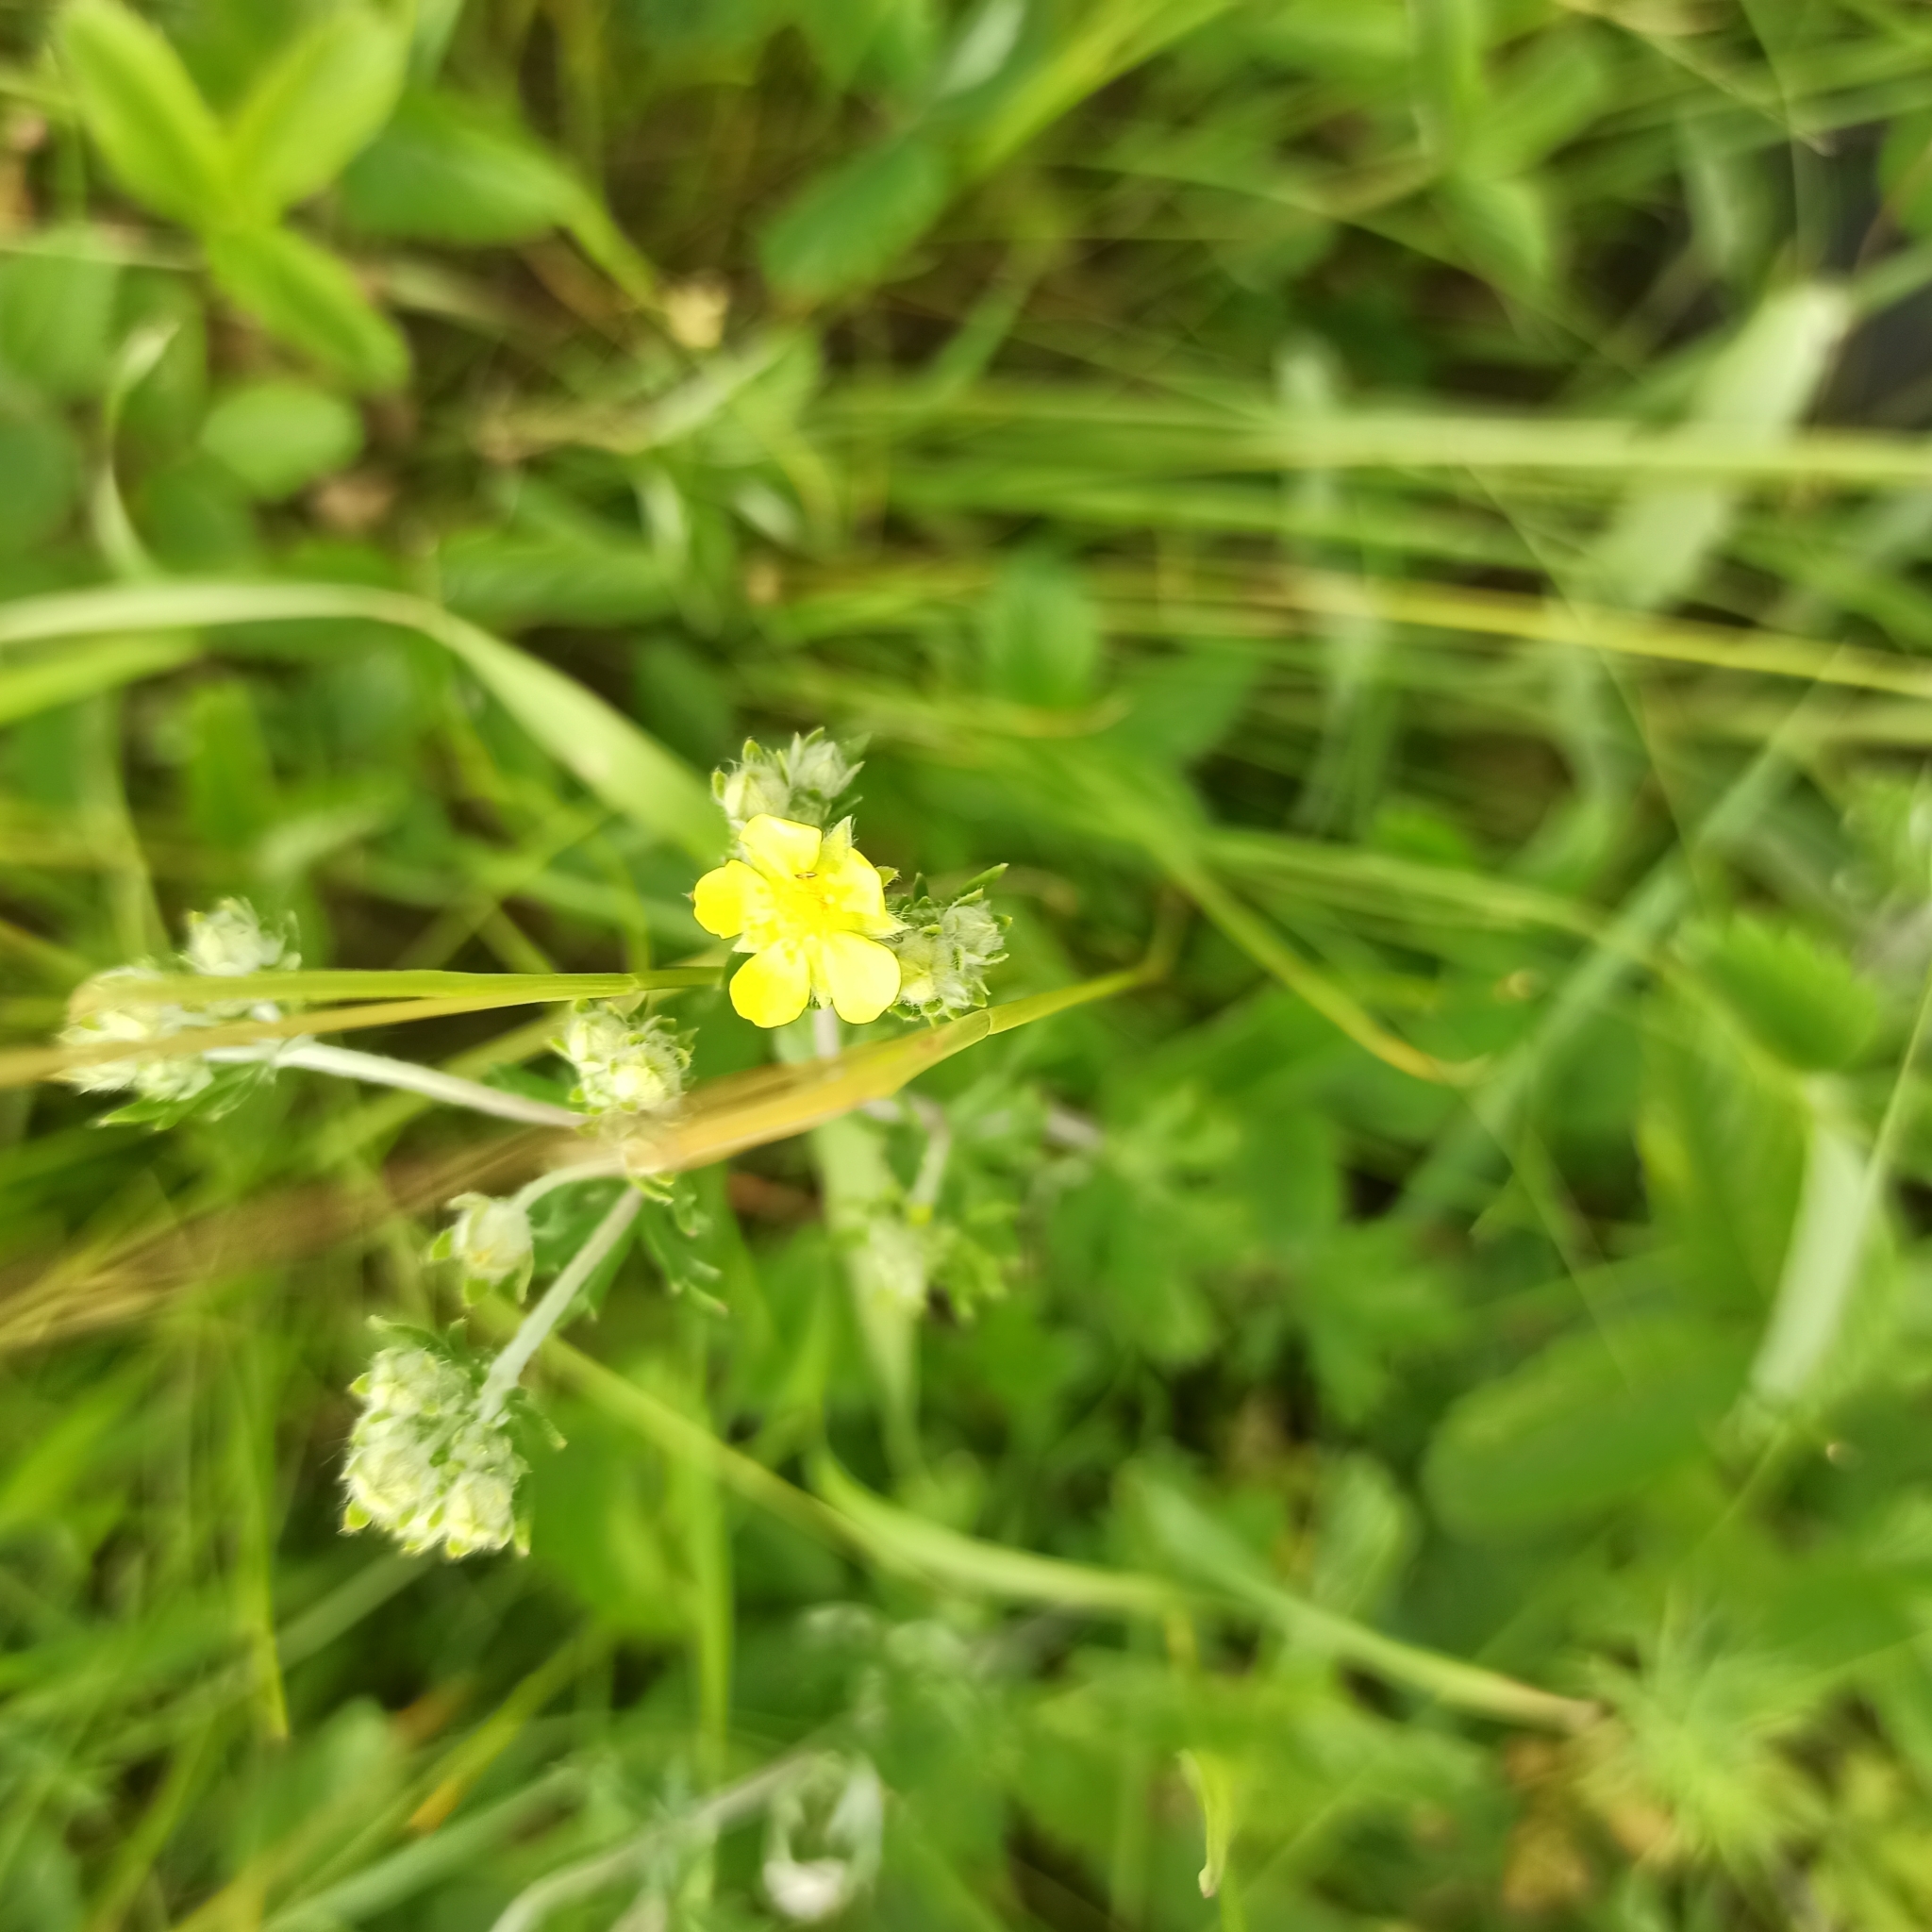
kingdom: Plantae
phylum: Tracheophyta
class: Magnoliopsida
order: Rosales
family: Rosaceae
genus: Potentilla
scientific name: Potentilla argentea
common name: Hoary cinquefoil
